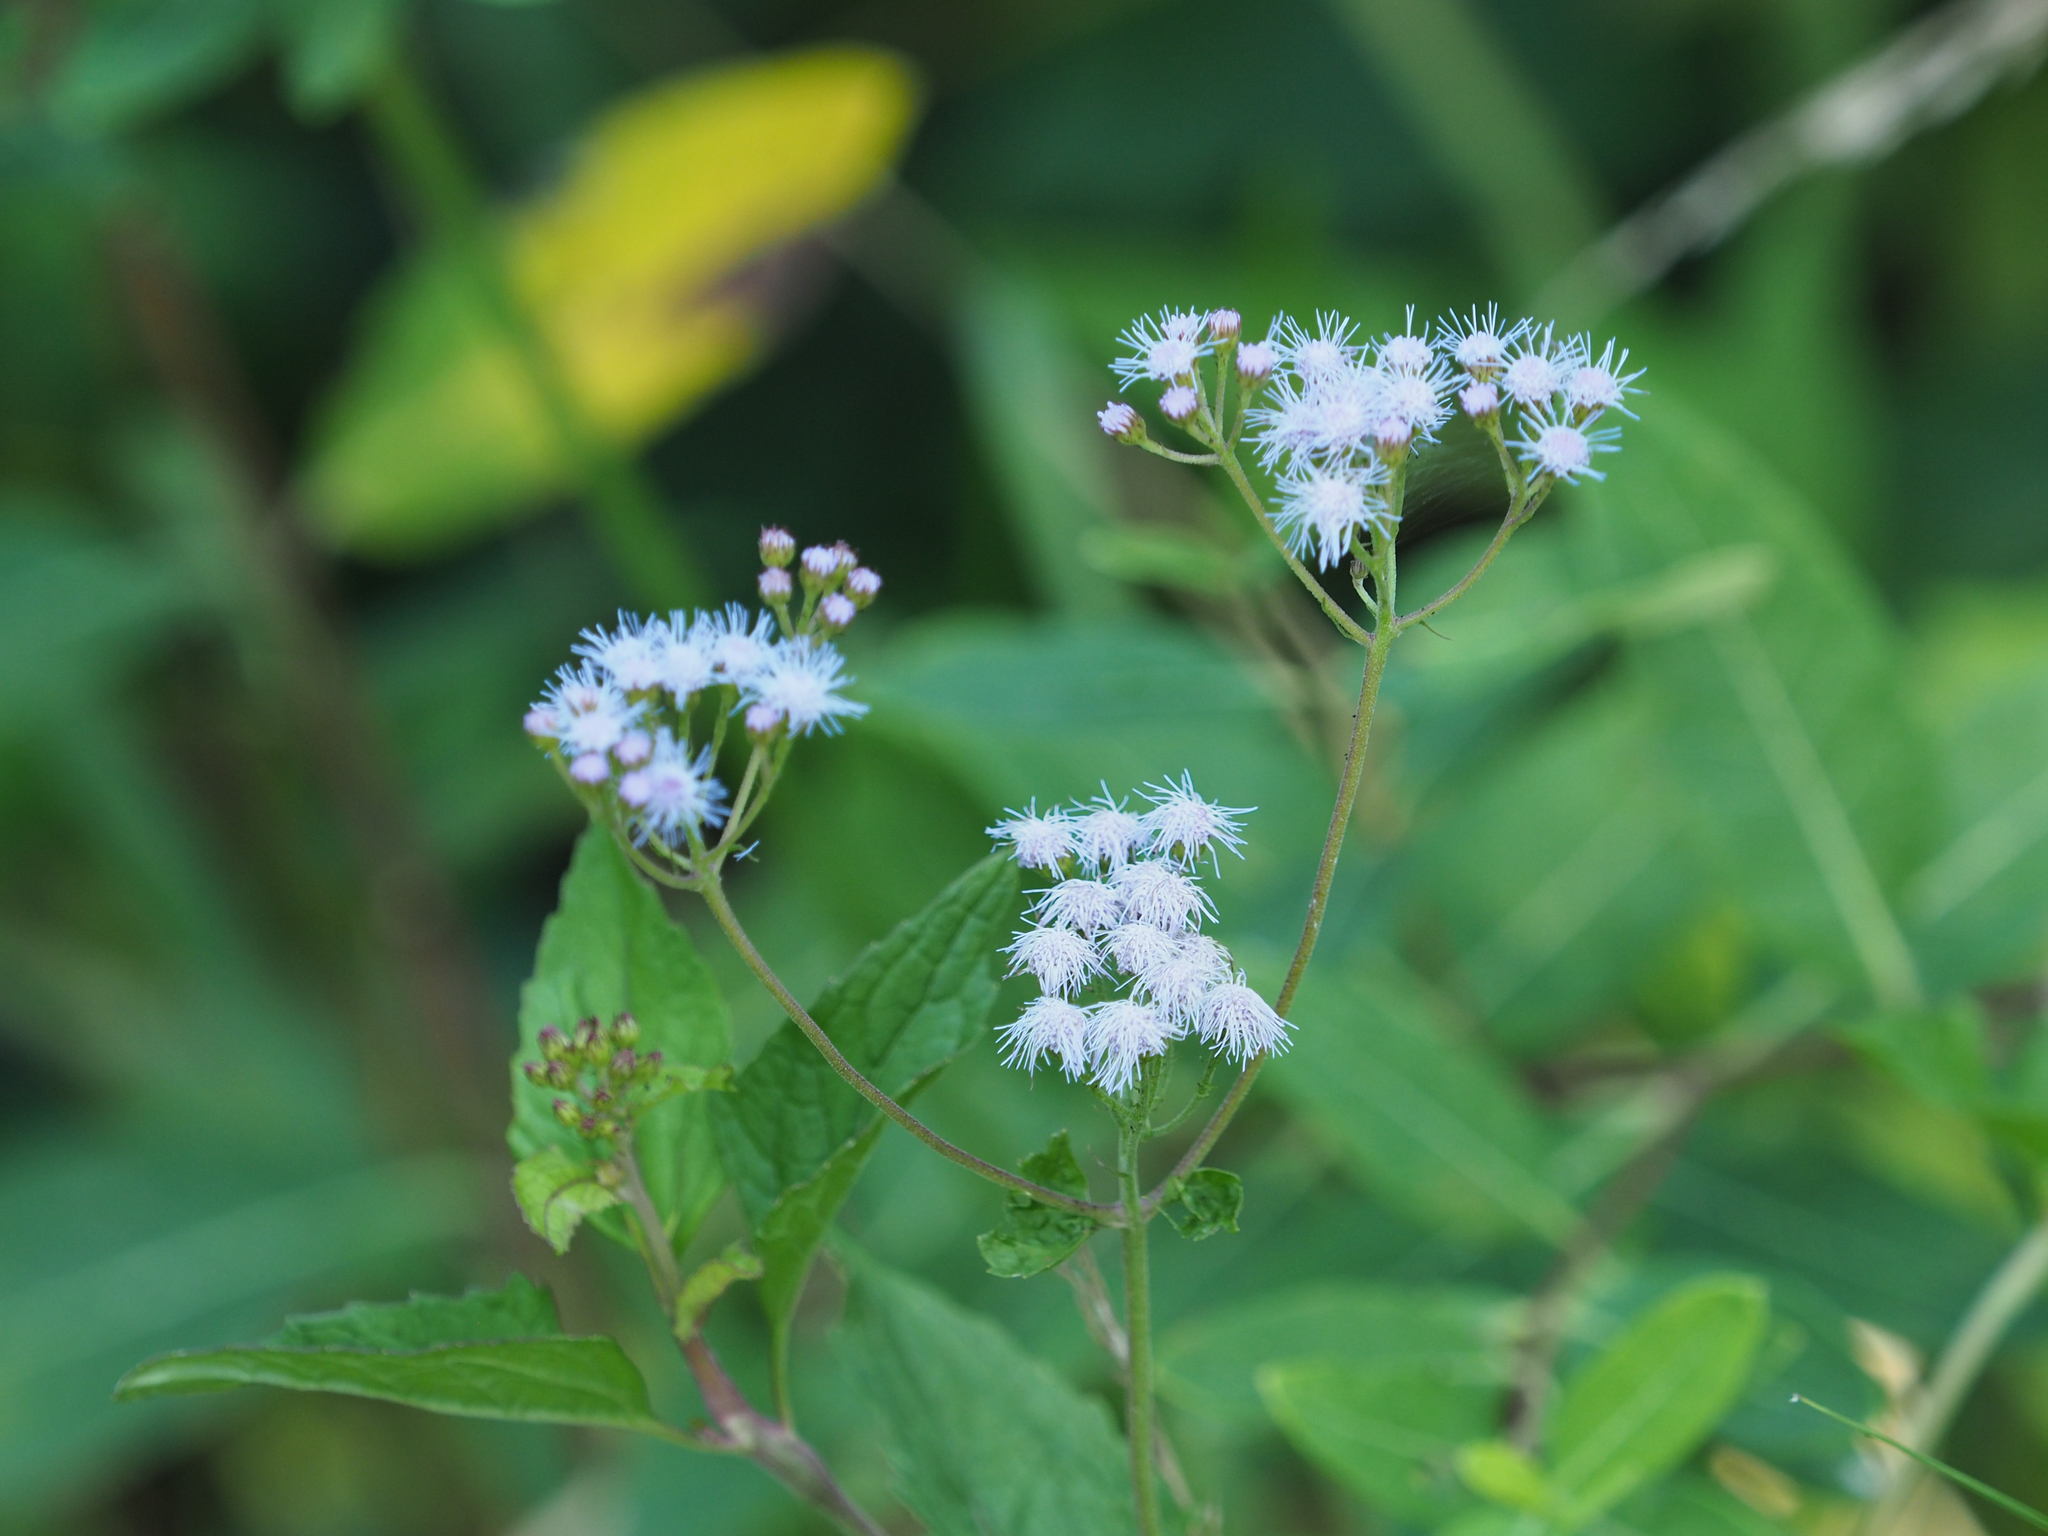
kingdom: Plantae
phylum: Tracheophyta
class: Magnoliopsida
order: Asterales
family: Asteraceae
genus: Conoclinium
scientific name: Conoclinium coelestinum
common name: Blue mistflower
